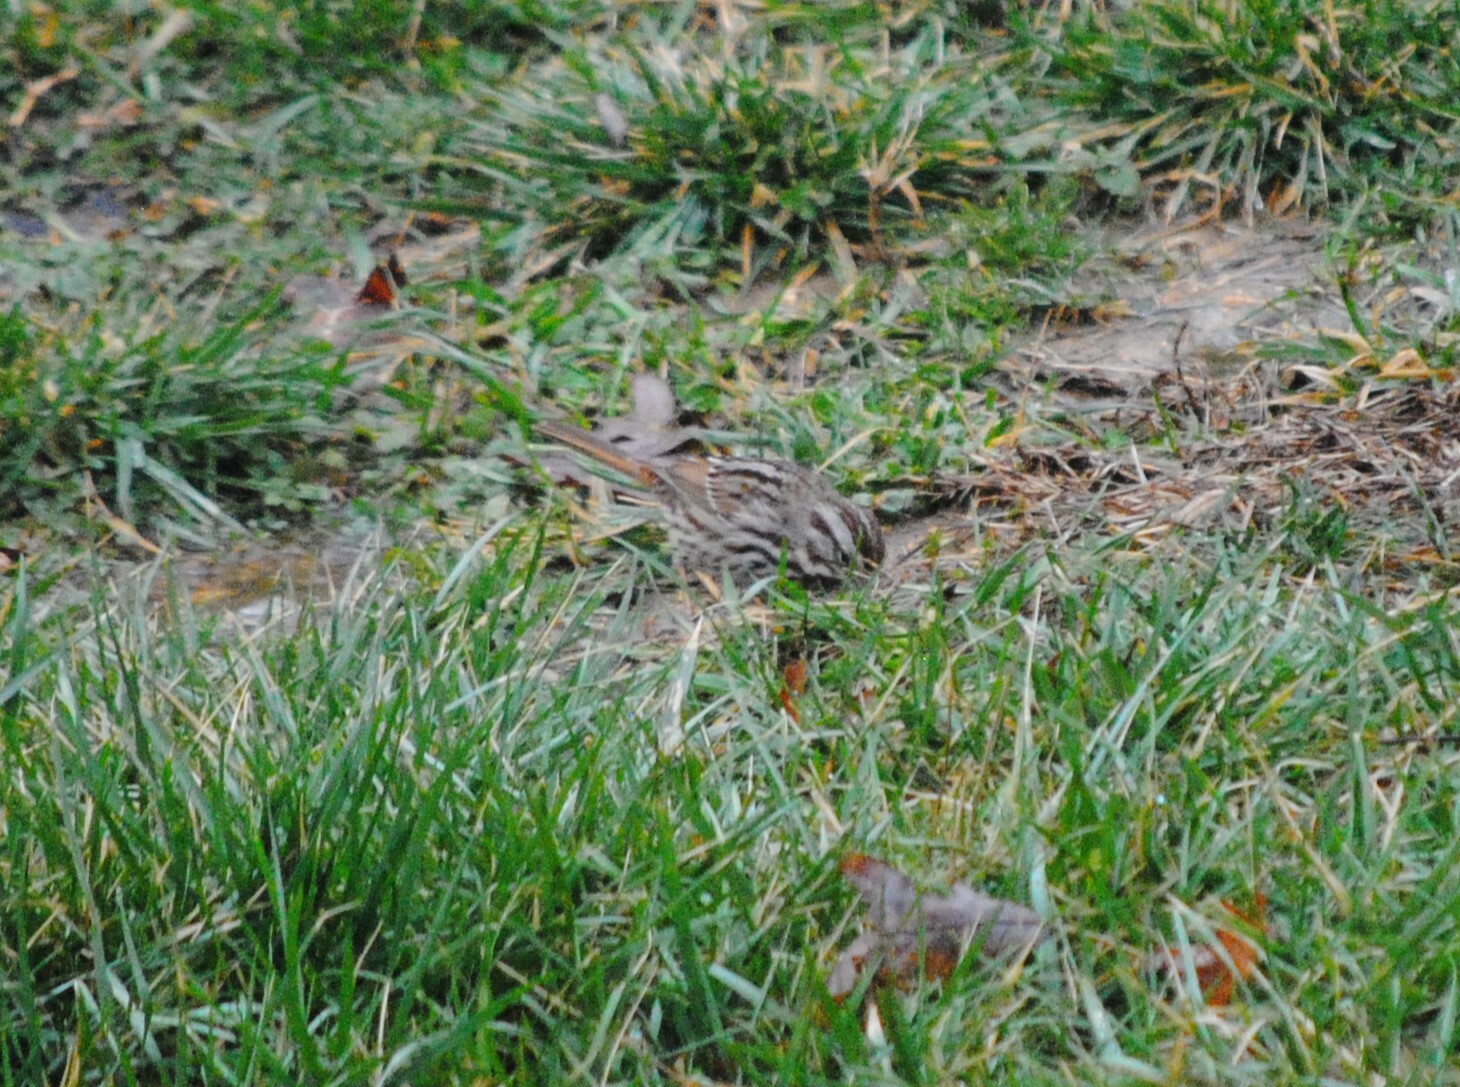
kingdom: Animalia
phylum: Chordata
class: Aves
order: Passeriformes
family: Passerellidae
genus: Melospiza
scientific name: Melospiza melodia
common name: Song sparrow
